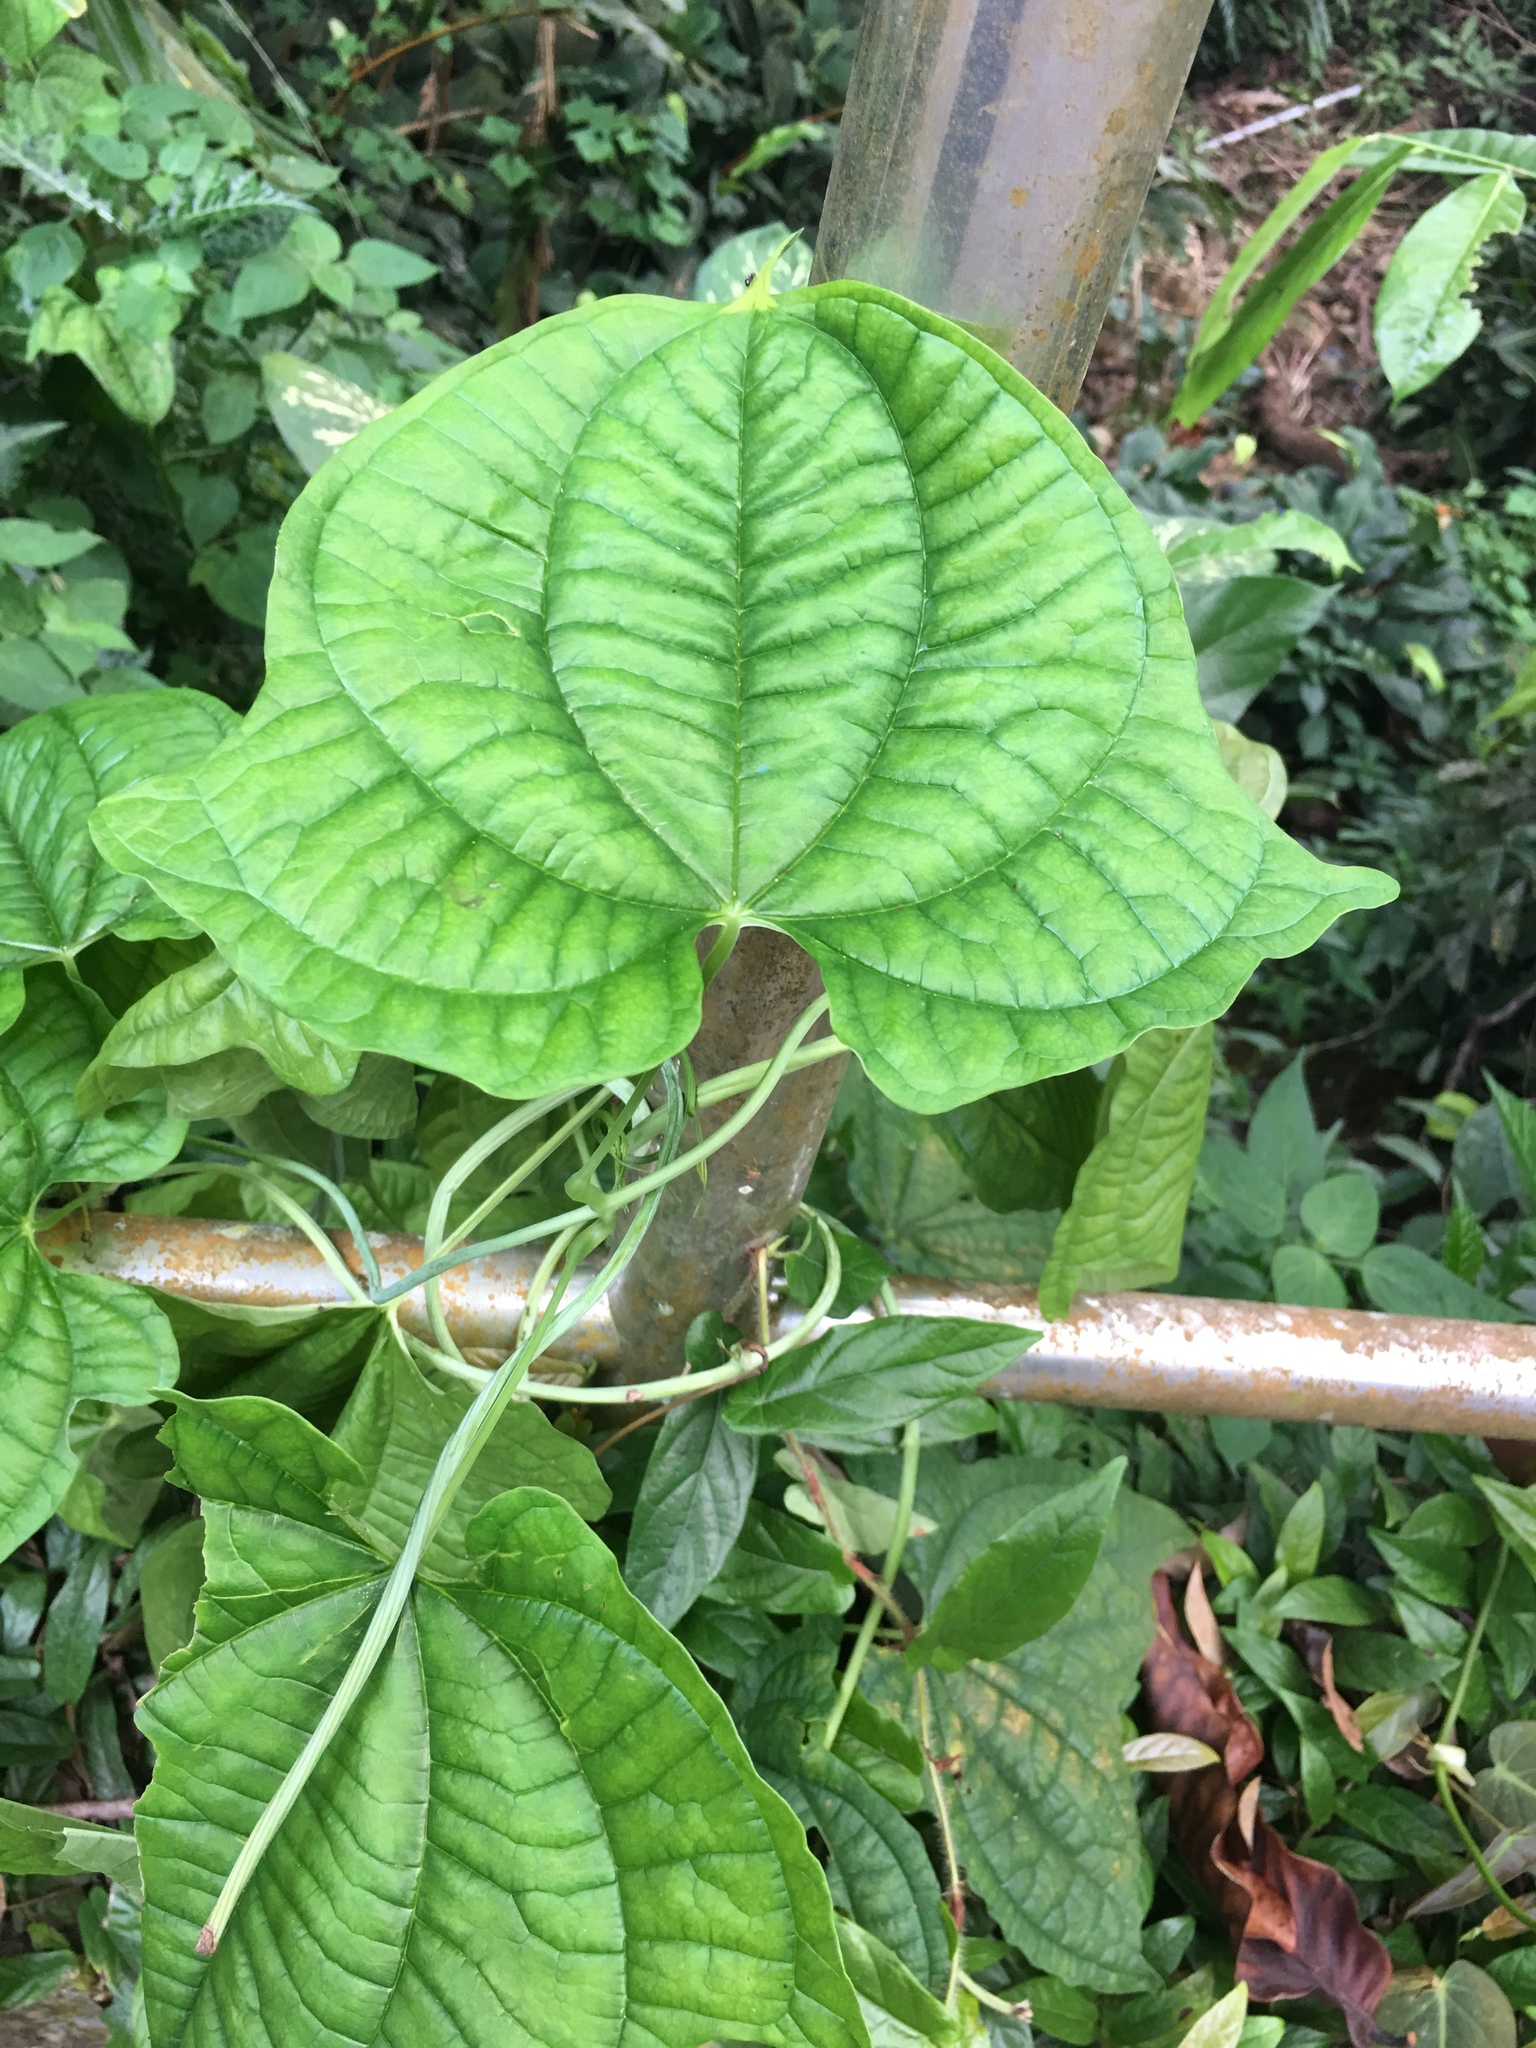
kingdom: Plantae
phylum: Tracheophyta
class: Liliopsida
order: Dioscoreales
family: Dioscoreaceae
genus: Dioscorea
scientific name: Dioscorea sansibarensis
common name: Zanzibar yam
